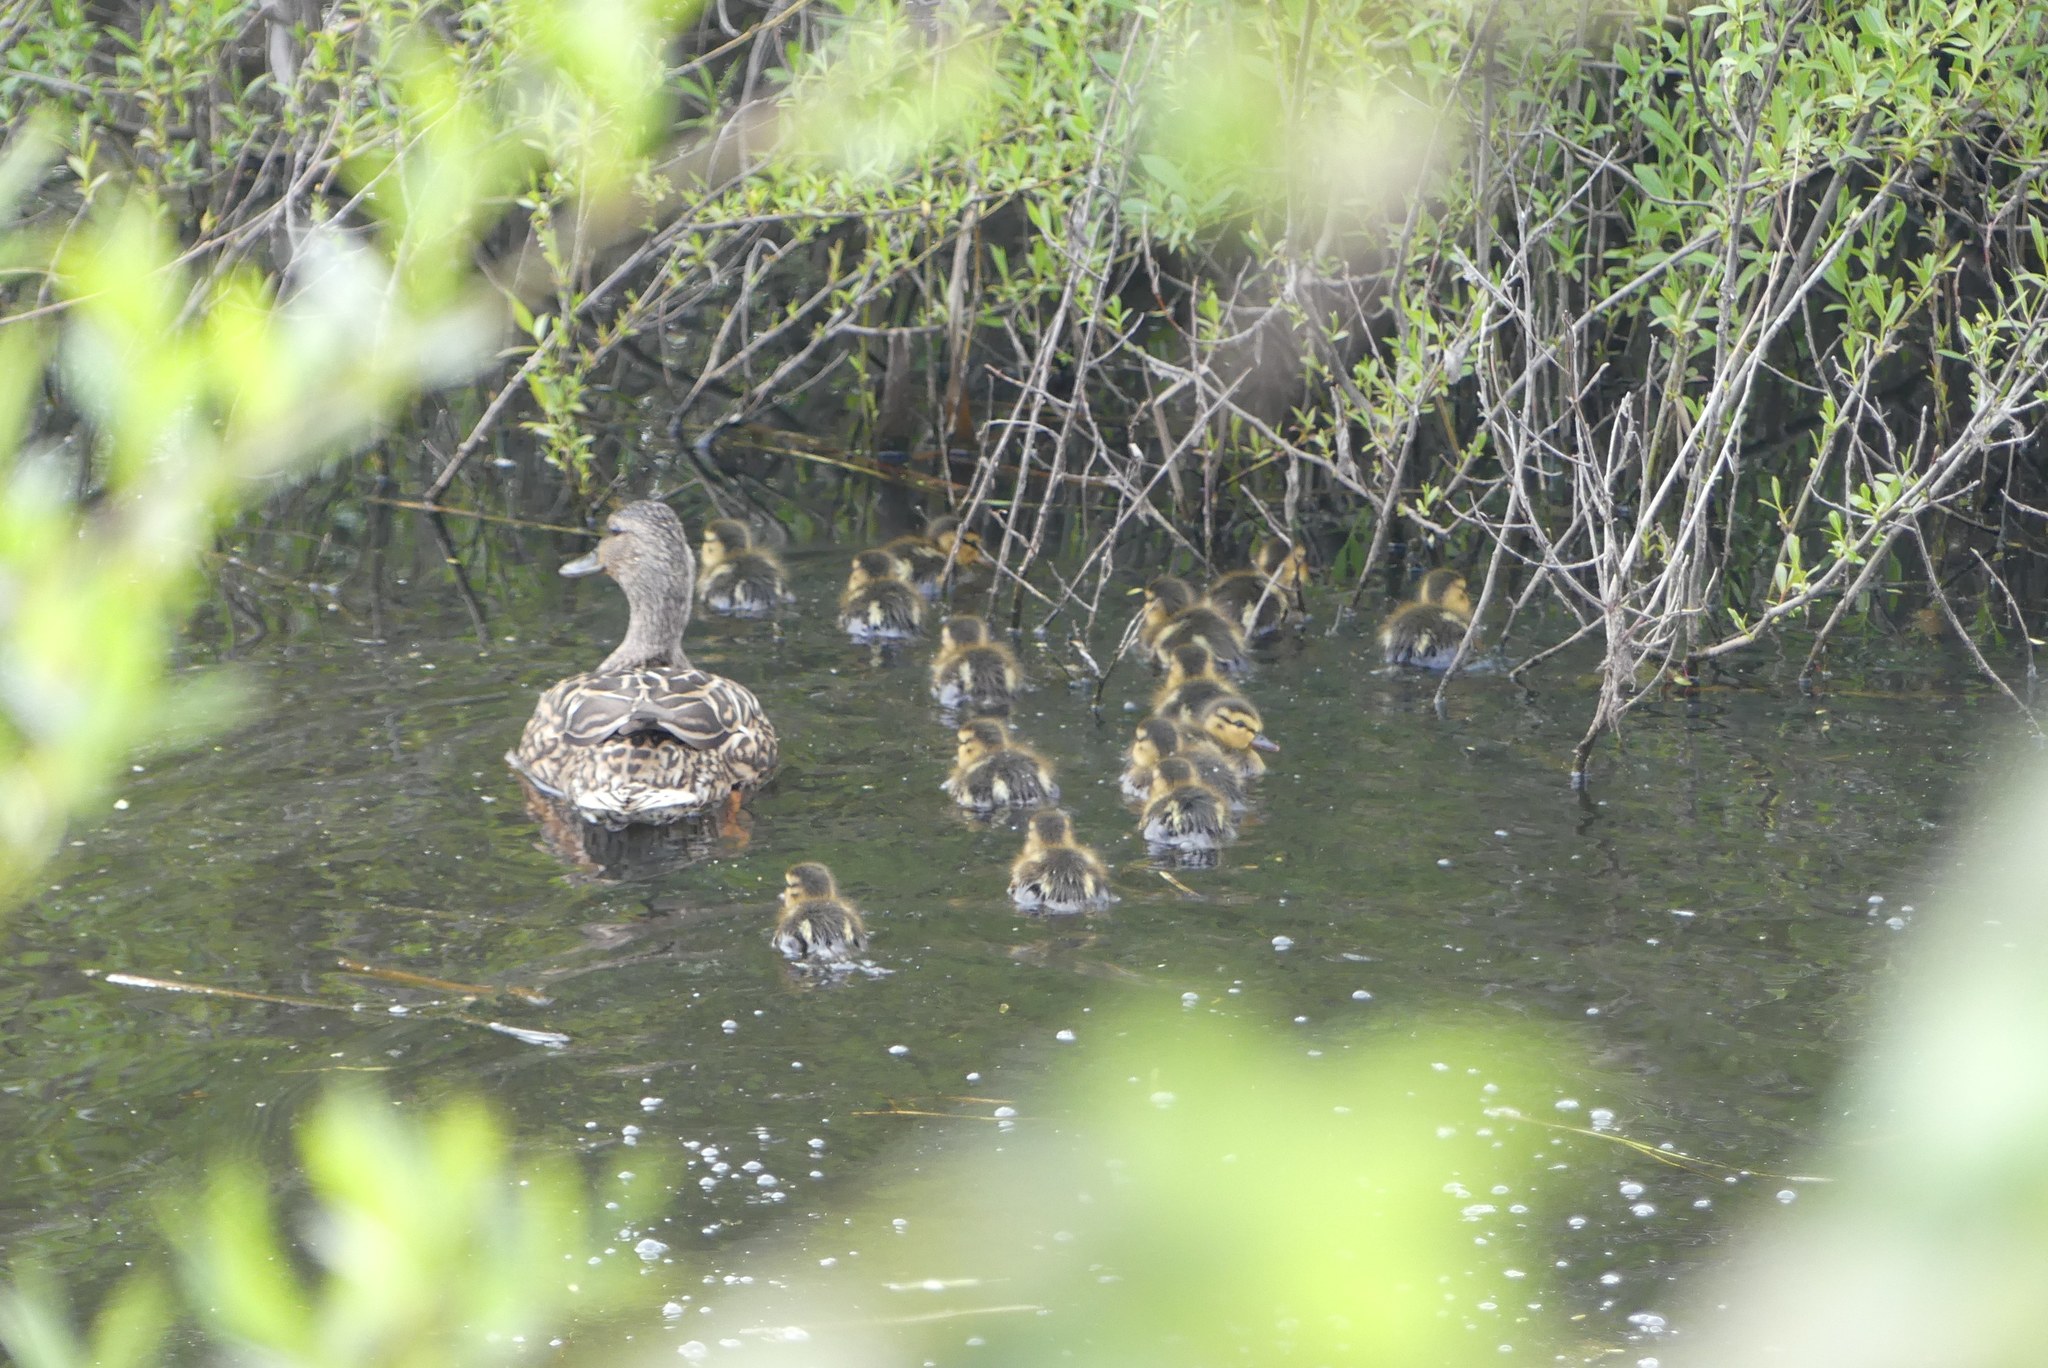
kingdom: Animalia
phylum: Chordata
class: Aves
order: Anseriformes
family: Anatidae
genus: Anas
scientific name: Anas platyrhynchos
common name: Mallard
